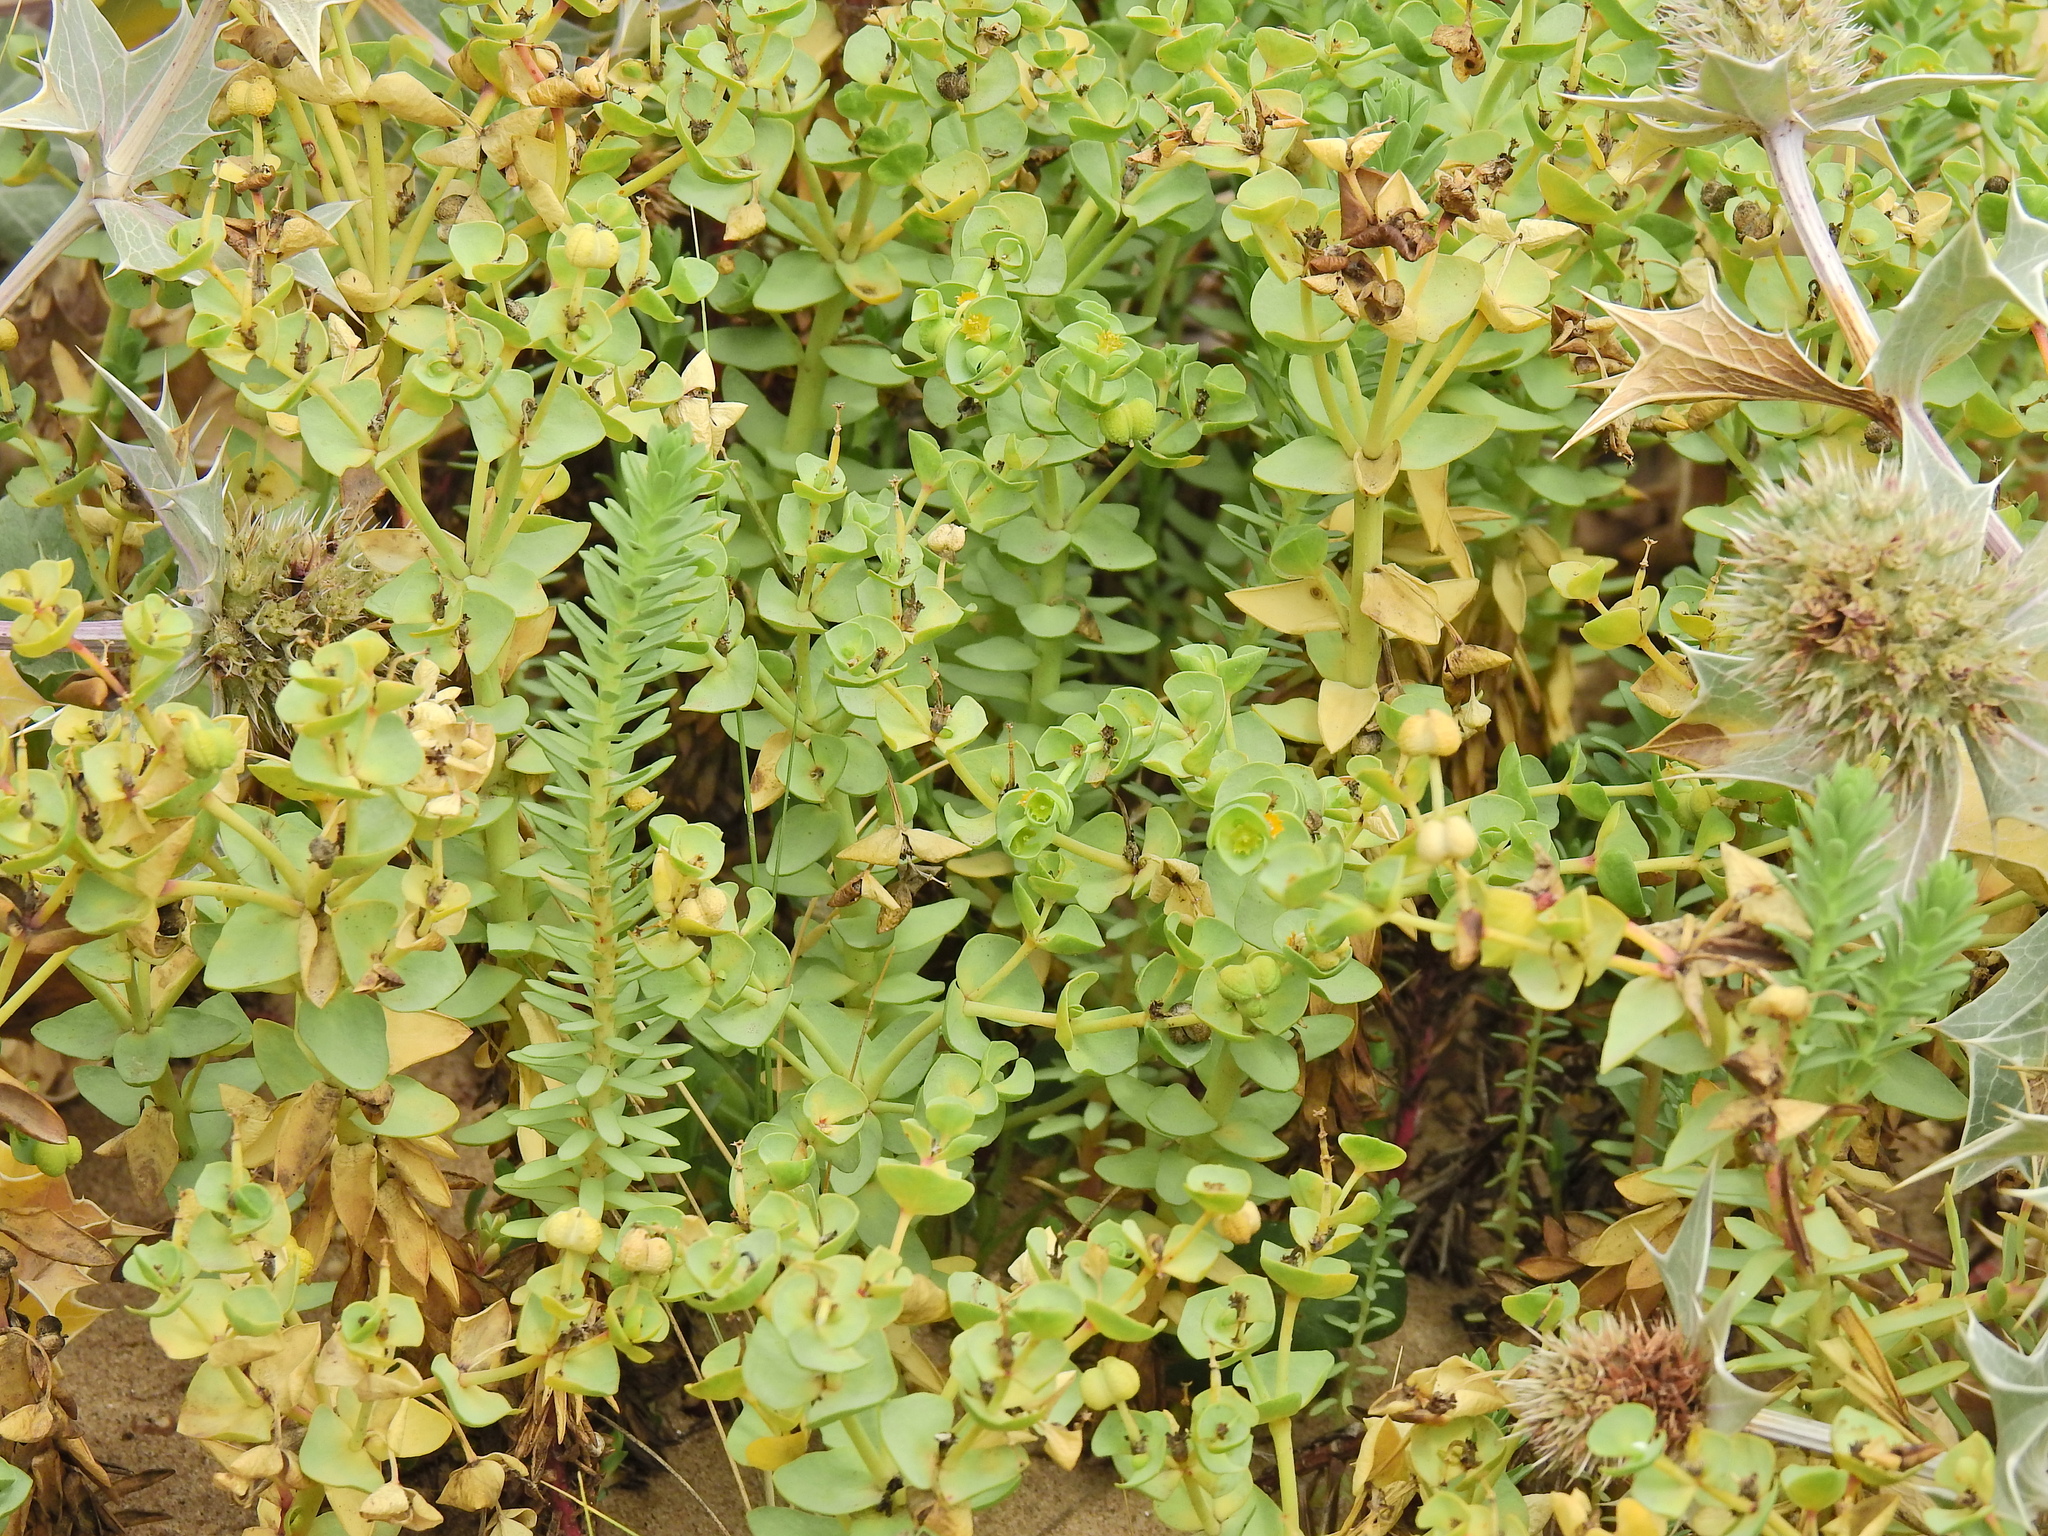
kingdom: Plantae
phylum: Tracheophyta
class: Magnoliopsida
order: Malpighiales
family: Euphorbiaceae
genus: Euphorbia
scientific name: Euphorbia paralias
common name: Sea spurge
